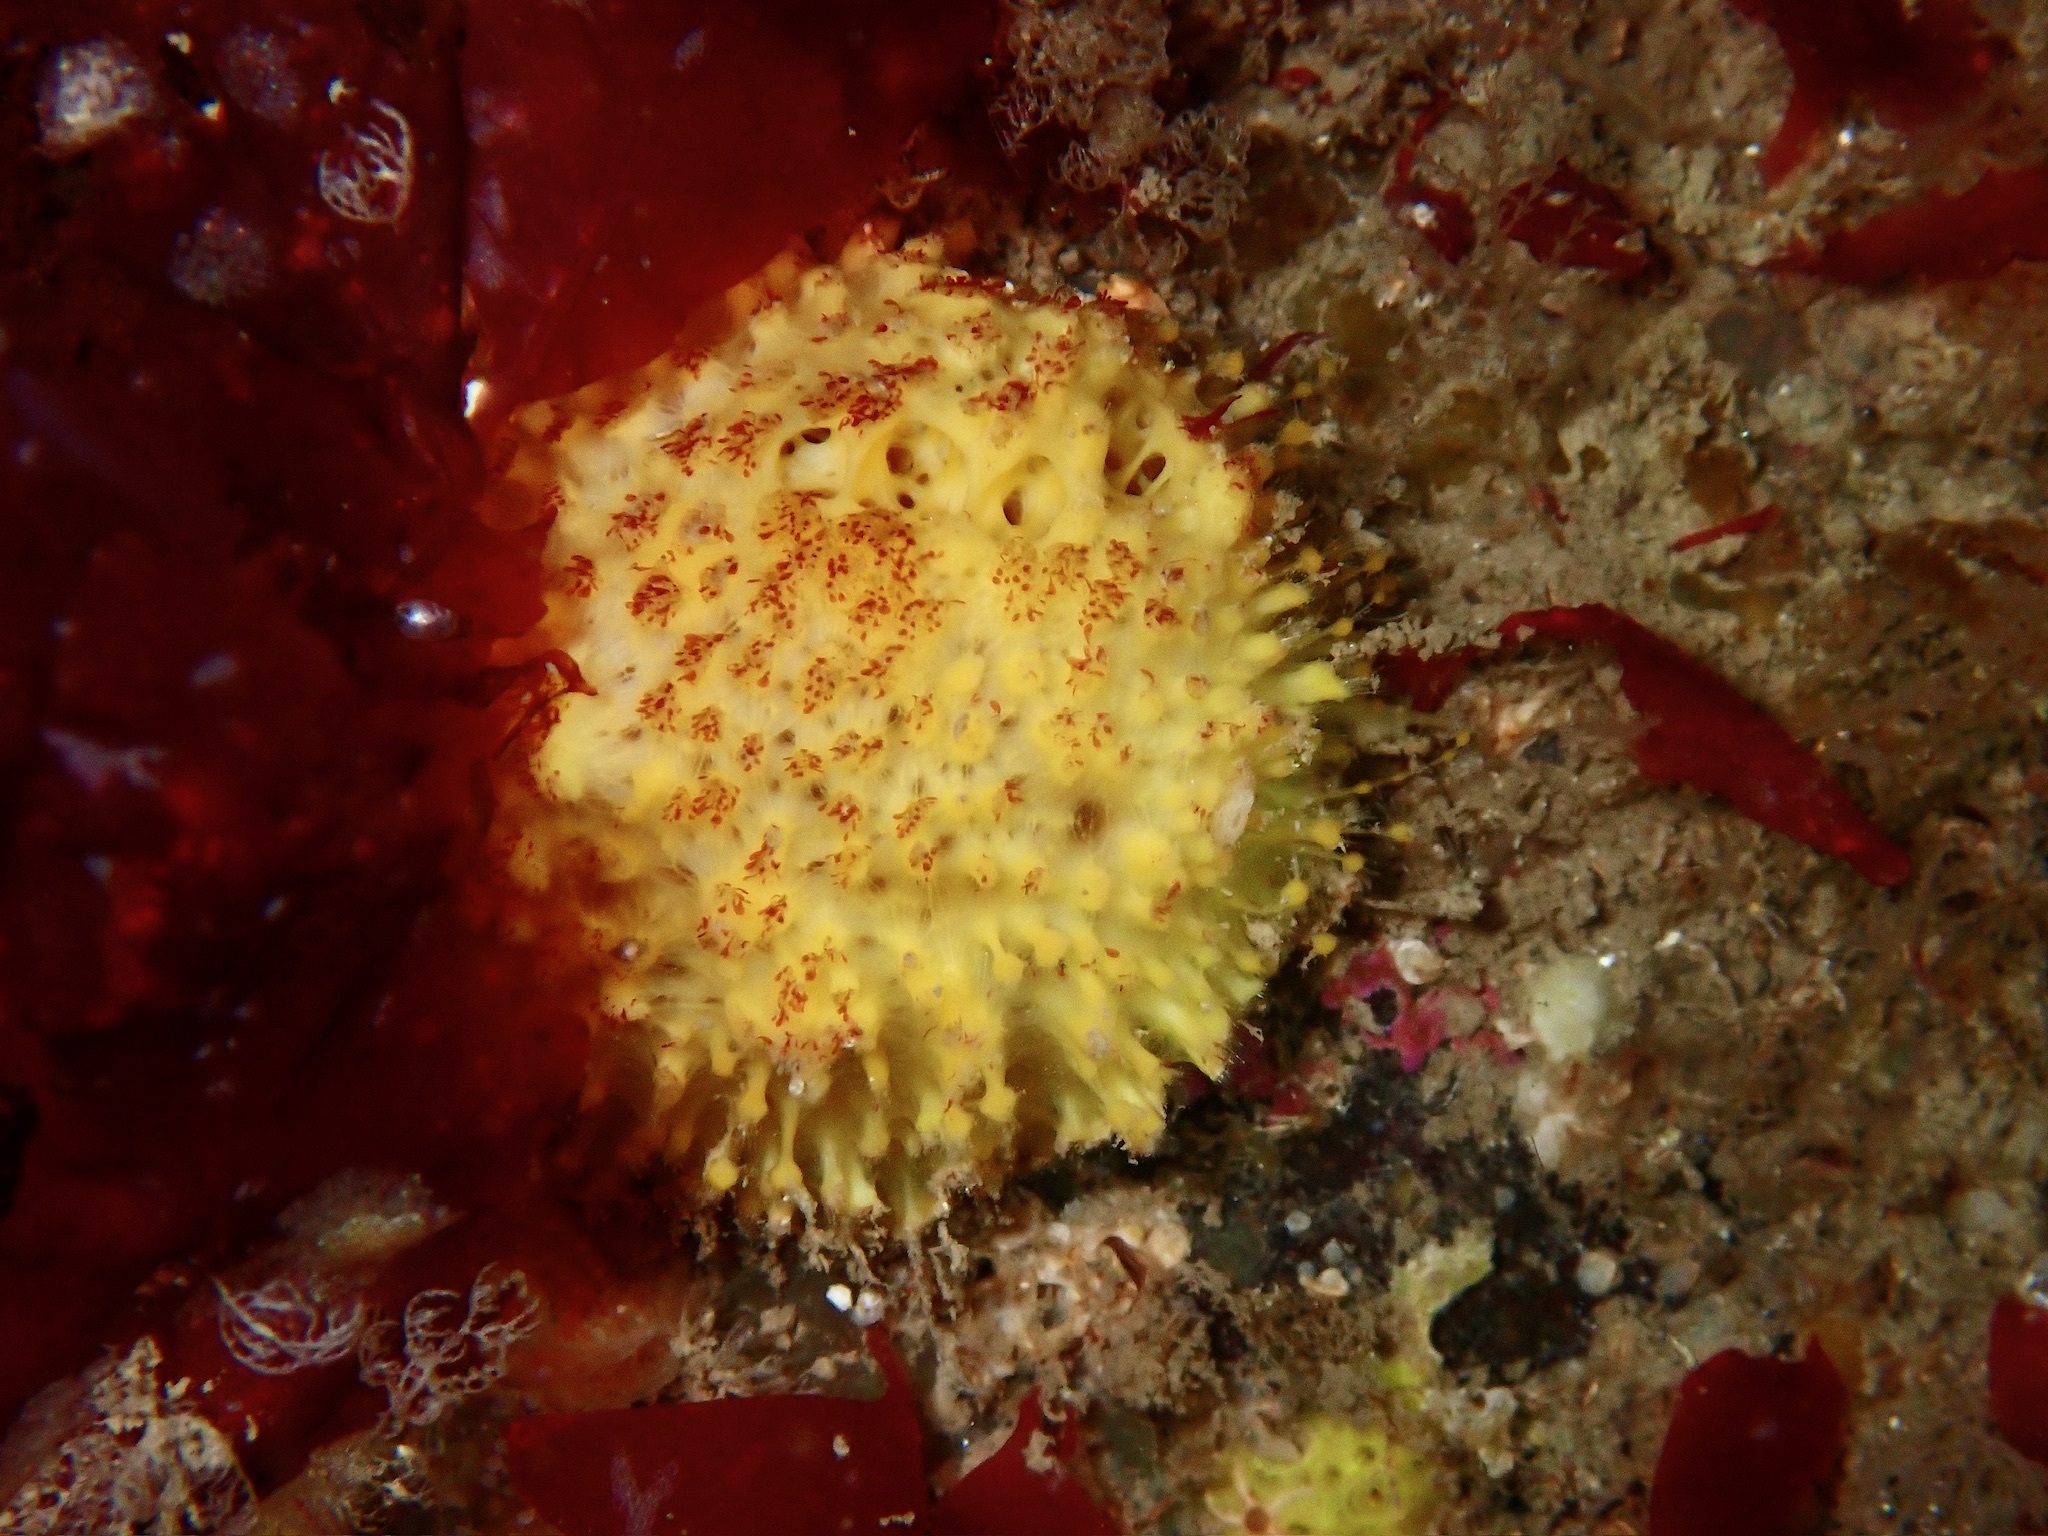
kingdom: Animalia
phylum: Porifera
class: Demospongiae
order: Tethyida
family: Tethyidae
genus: Tethya
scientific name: Tethya citrina
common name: Sea lemon
